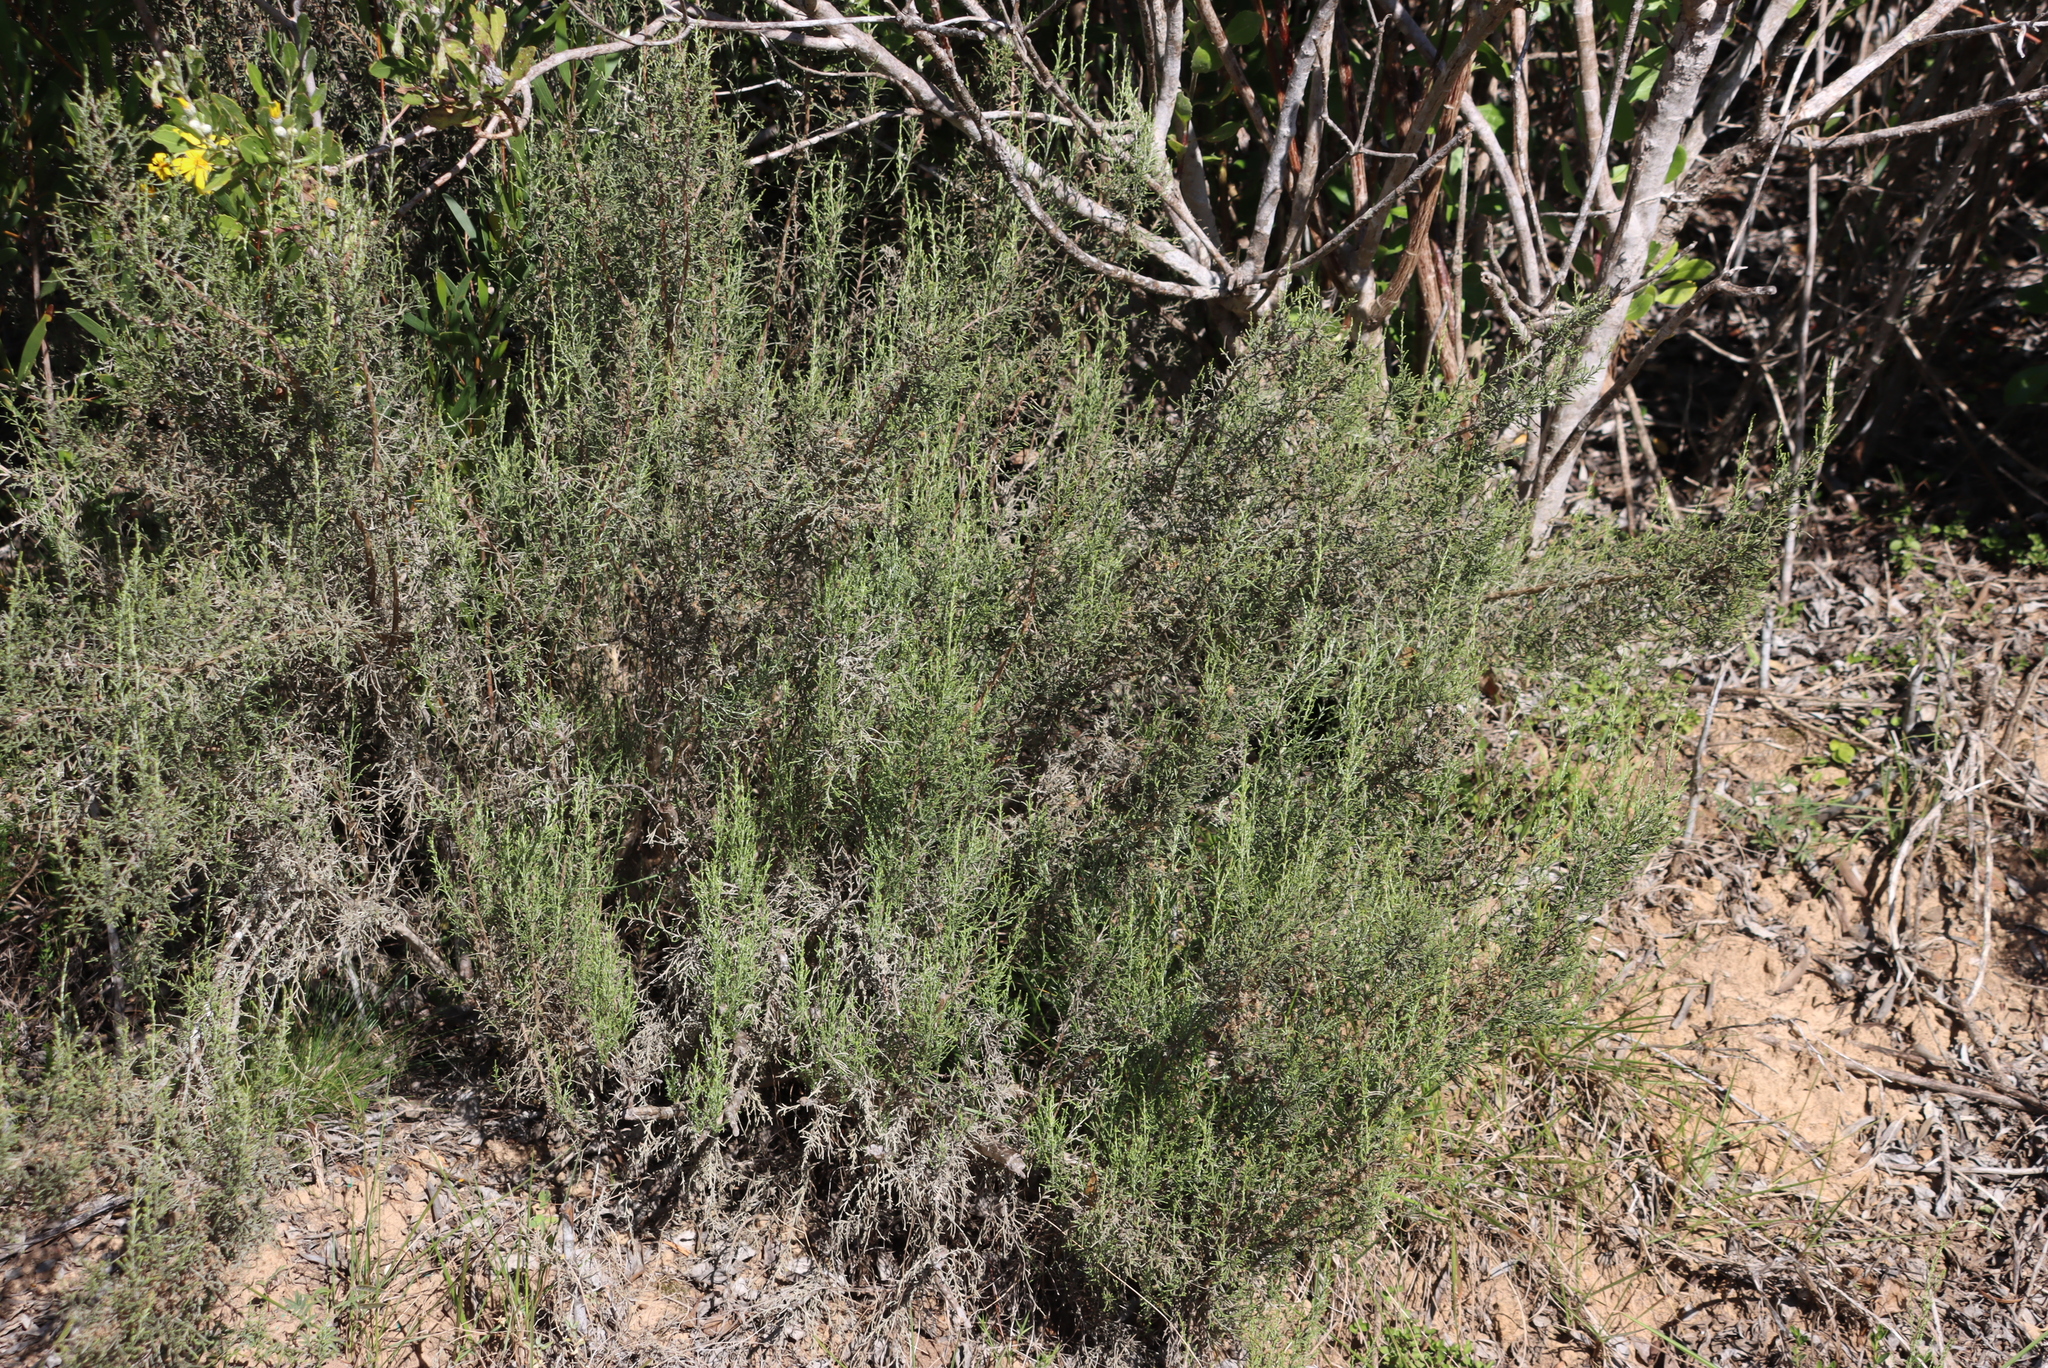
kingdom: Plantae
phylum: Tracheophyta
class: Magnoliopsida
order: Asterales
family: Asteraceae
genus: Dicerothamnus
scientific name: Dicerothamnus rhinocerotis
